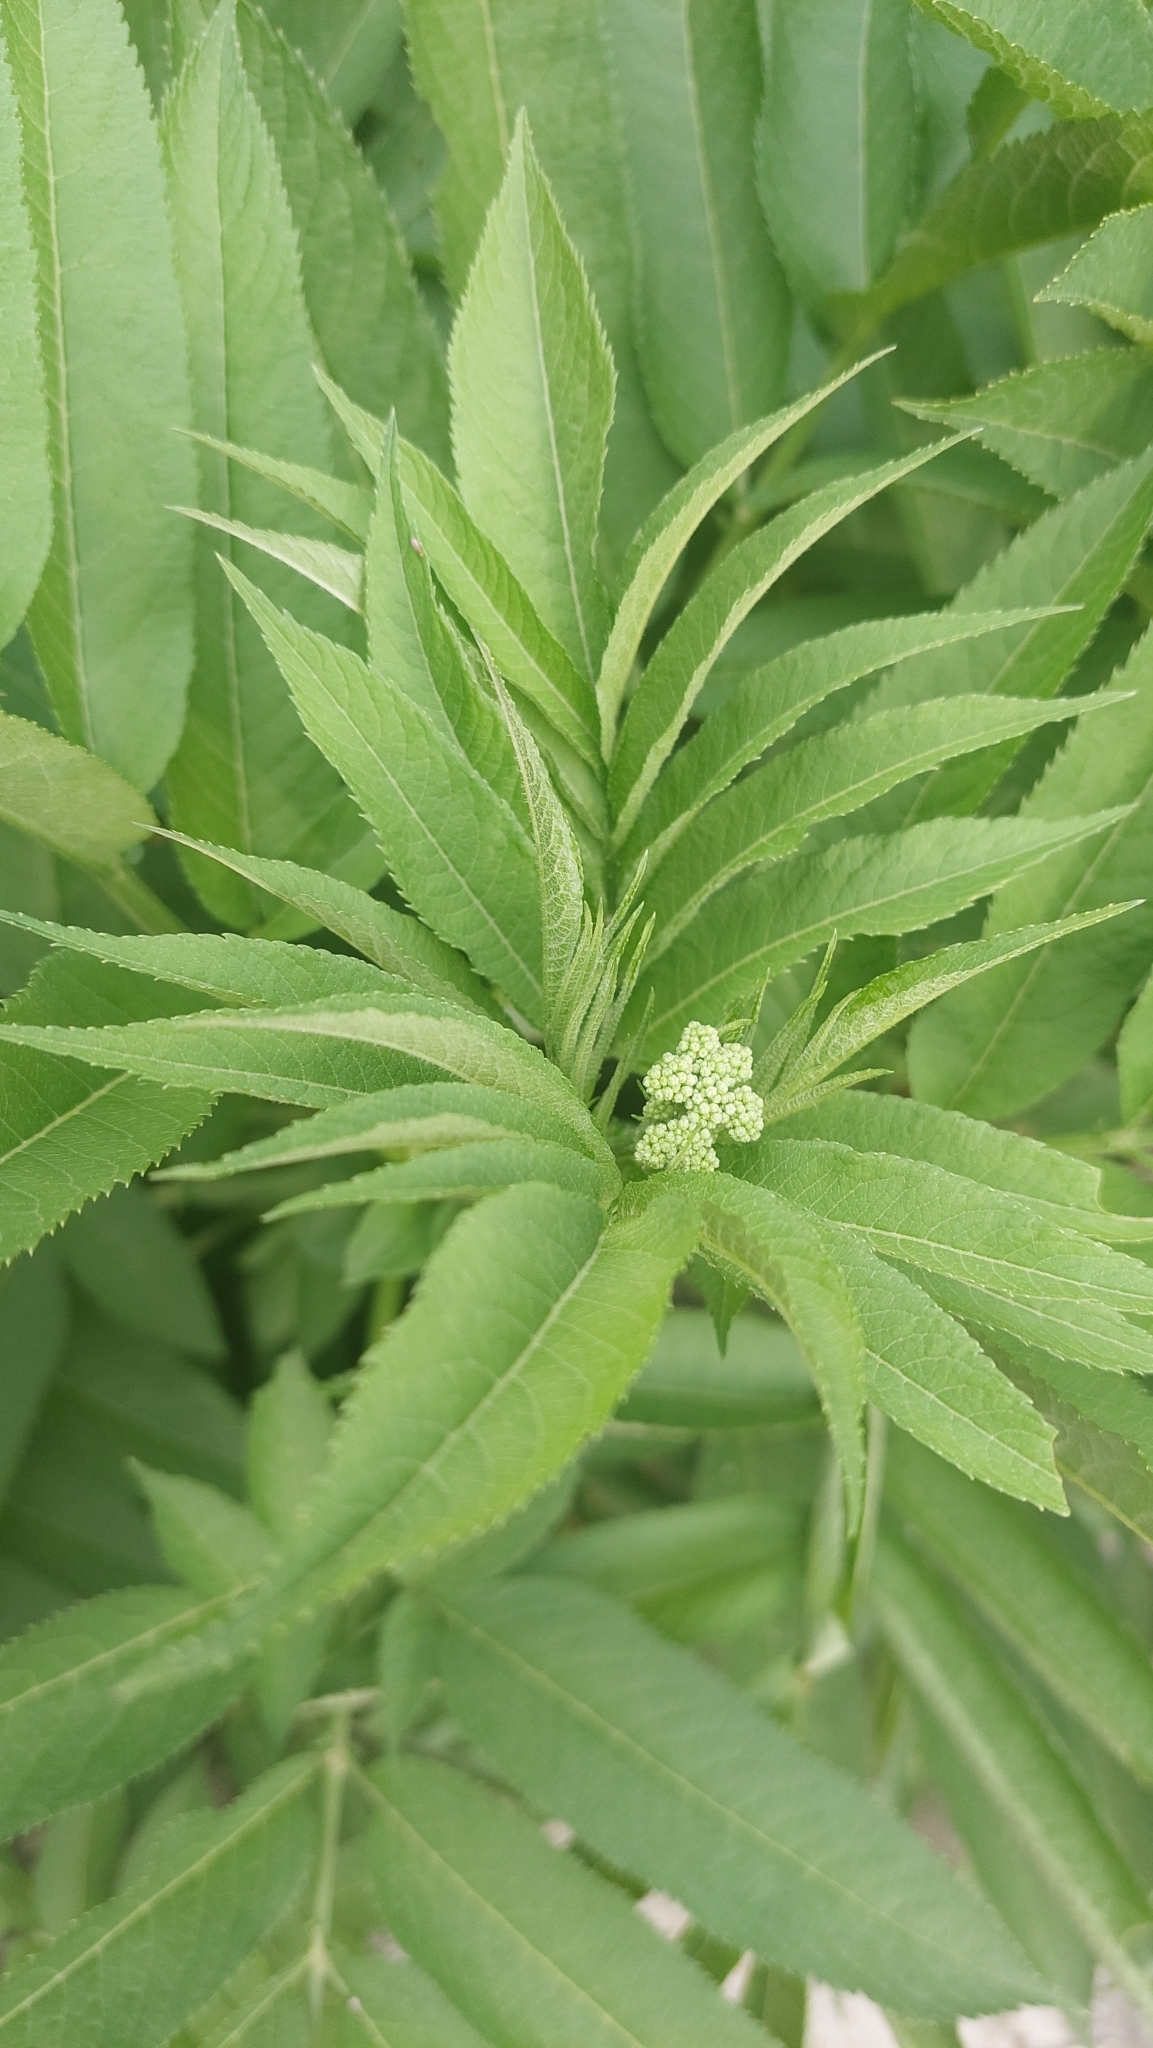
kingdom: Plantae
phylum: Tracheophyta
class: Magnoliopsida
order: Dipsacales
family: Viburnaceae
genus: Sambucus
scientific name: Sambucus ebulus
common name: Dwarf elder
